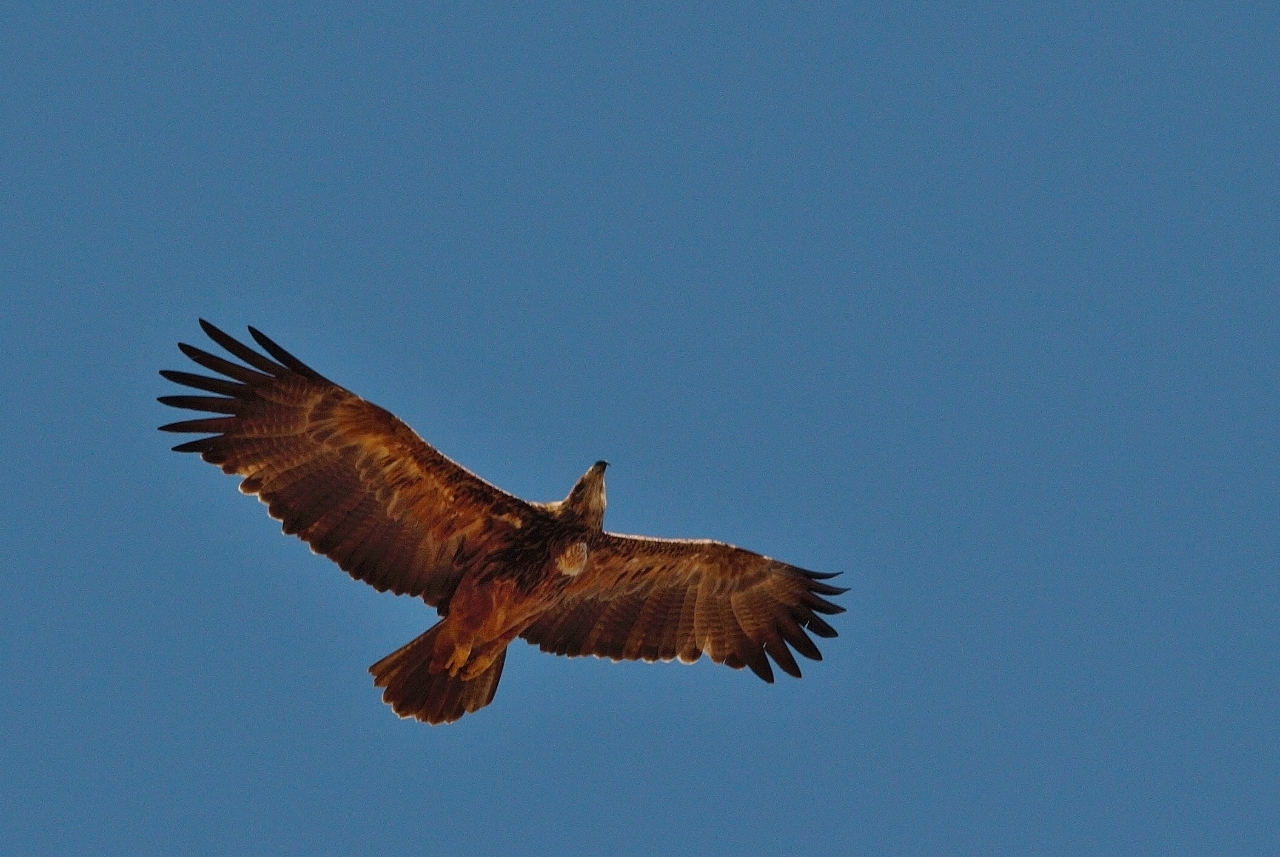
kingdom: Animalia
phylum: Chordata
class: Aves
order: Accipitriformes
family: Accipitridae
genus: Aquila
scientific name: Aquila rapax
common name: Tawny eagle
